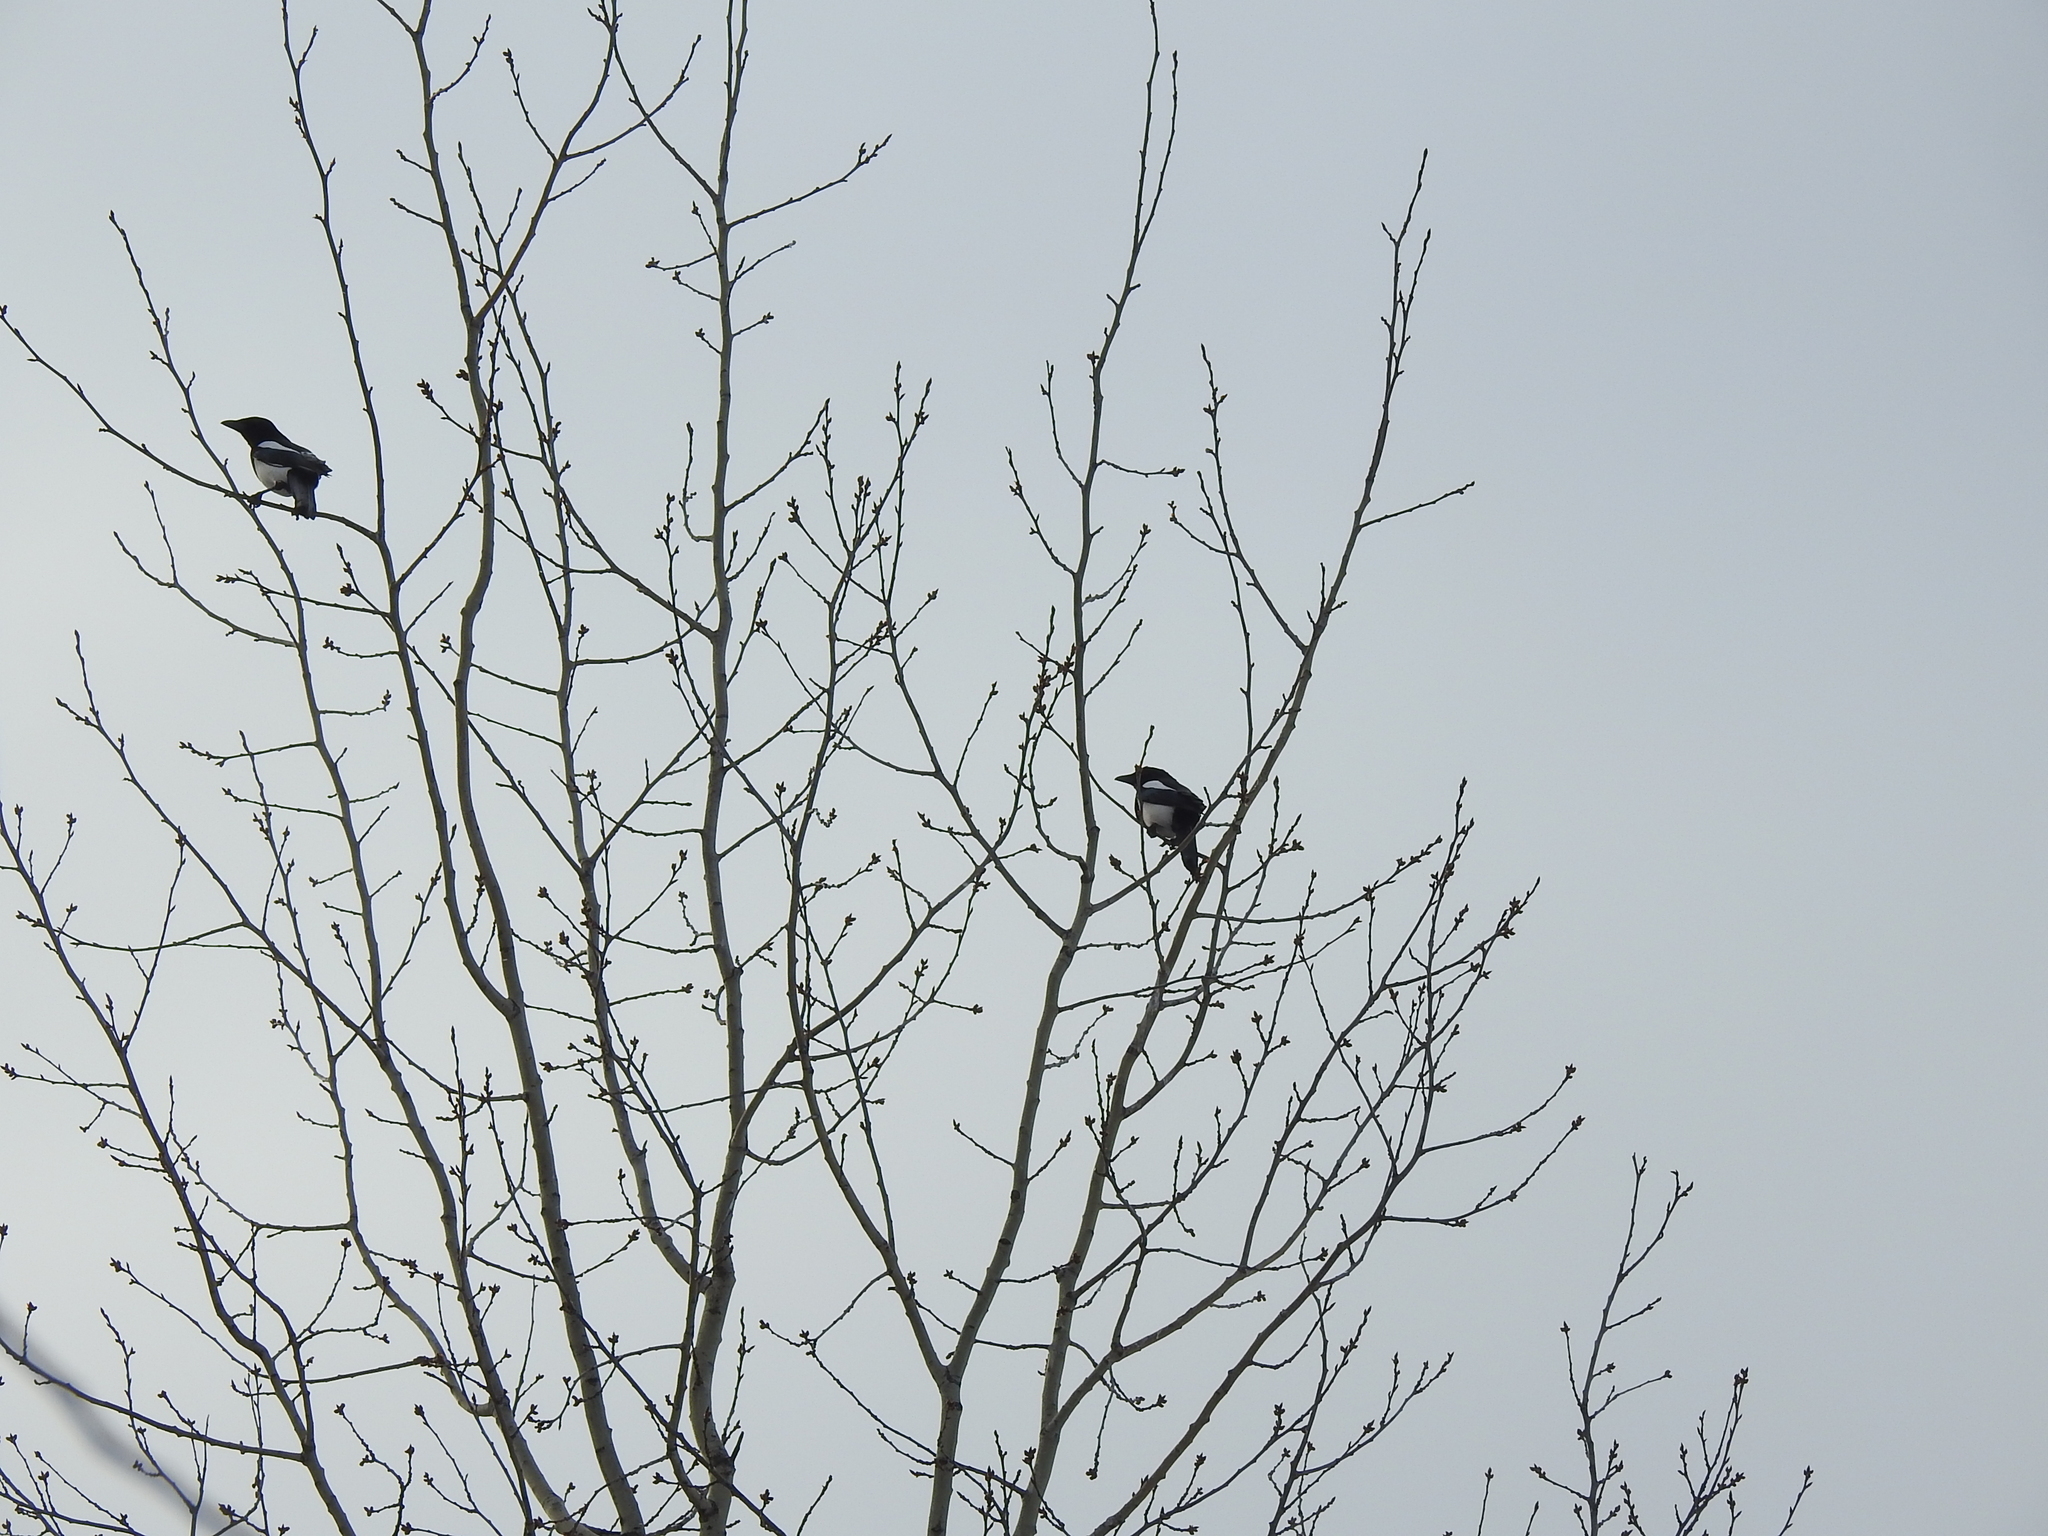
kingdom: Animalia
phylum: Chordata
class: Aves
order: Passeriformes
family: Corvidae
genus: Pica
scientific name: Pica pica
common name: Eurasian magpie
